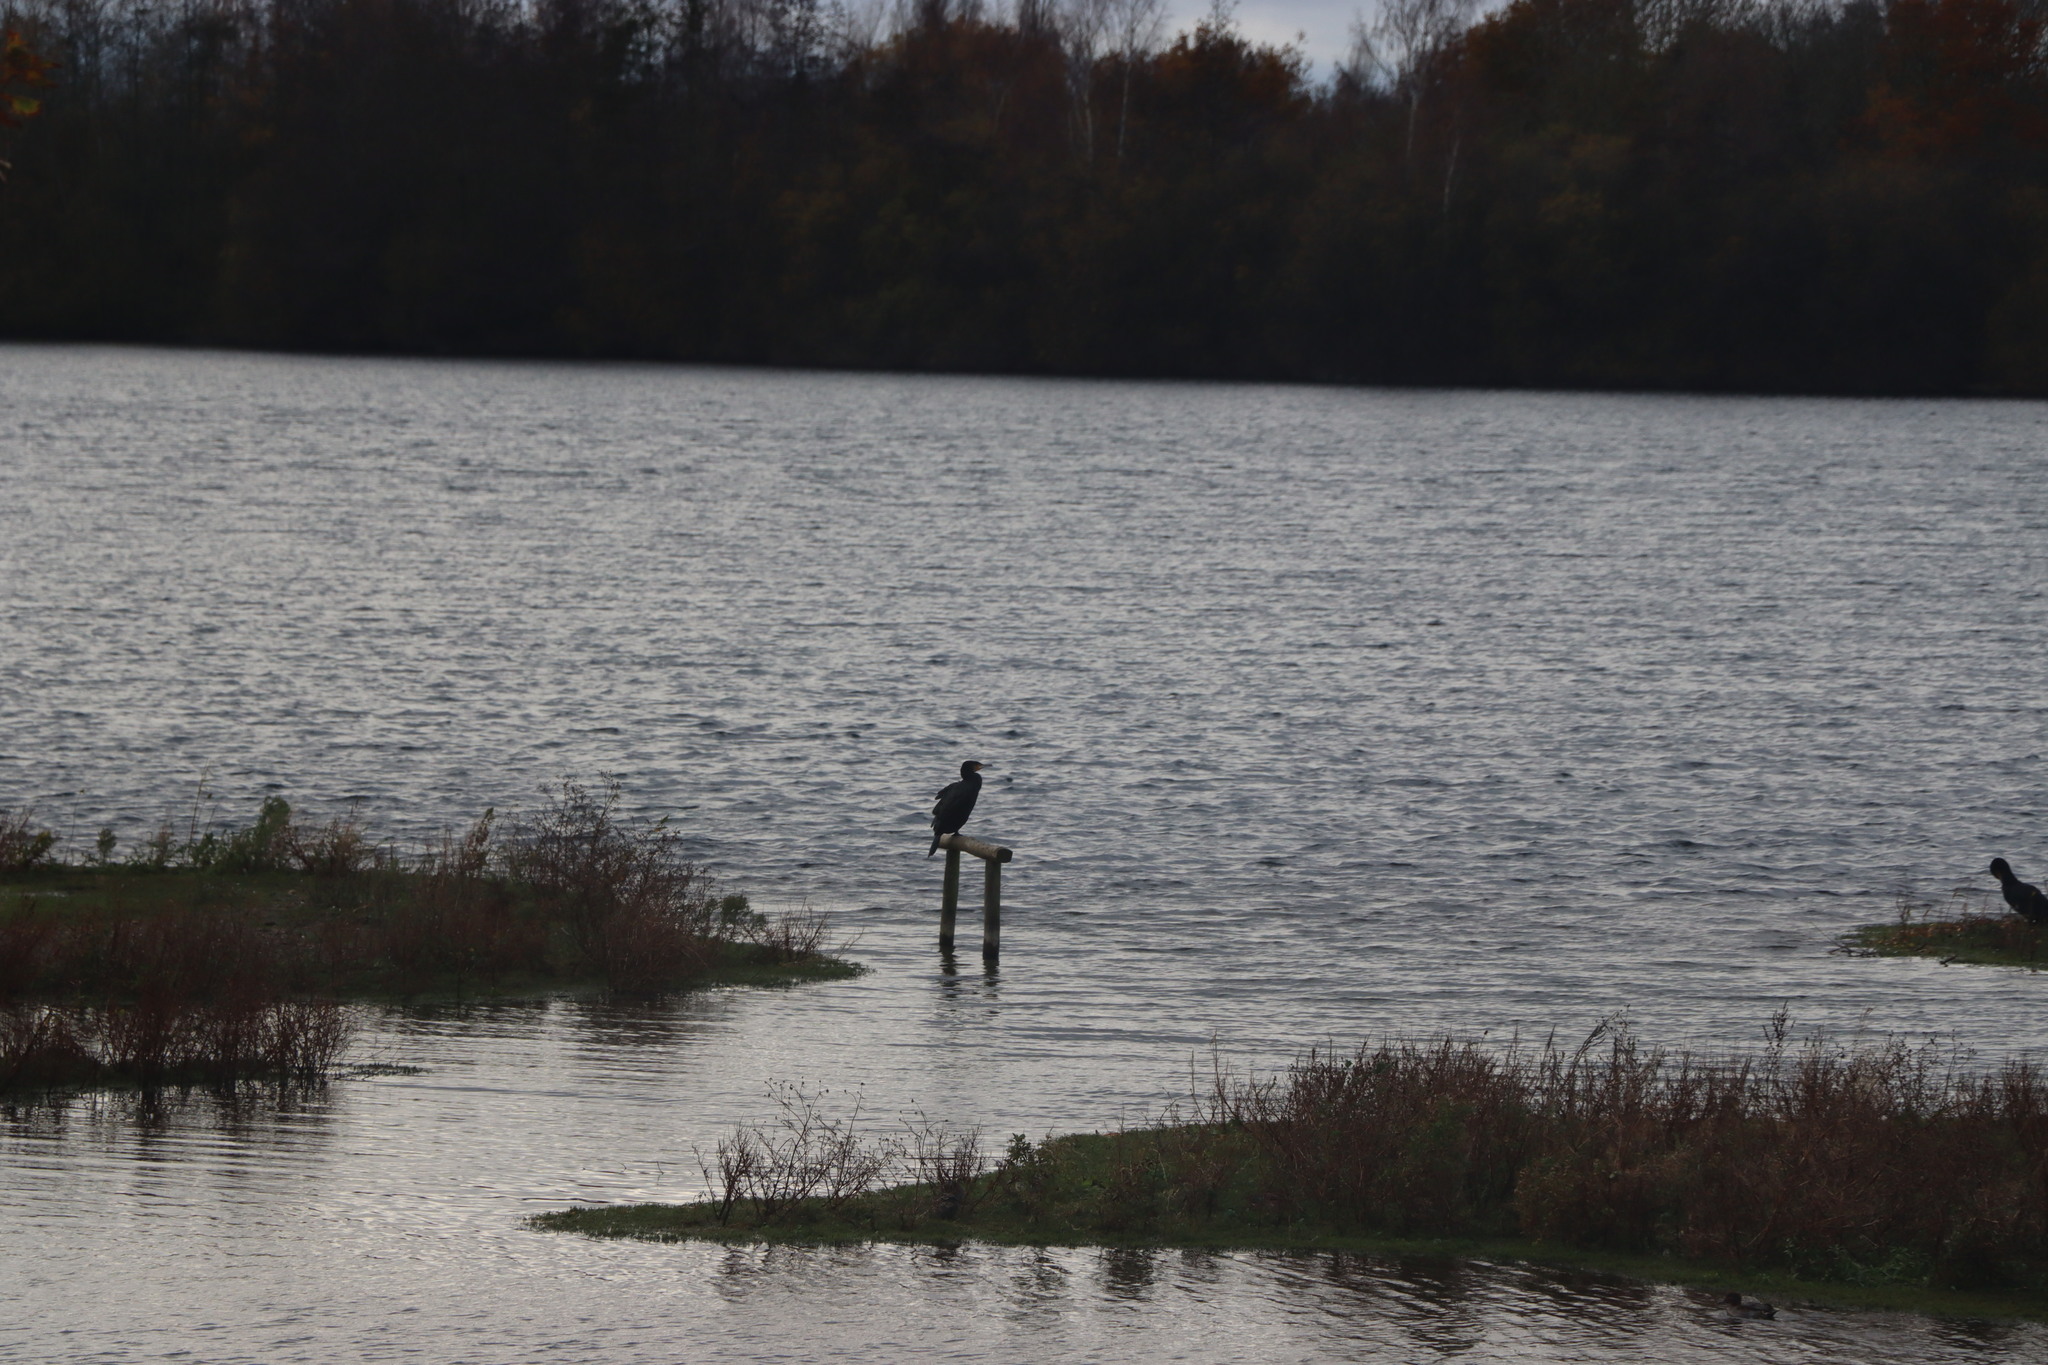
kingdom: Animalia
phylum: Chordata
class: Aves
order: Suliformes
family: Phalacrocoracidae
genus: Phalacrocorax
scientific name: Phalacrocorax carbo
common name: Great cormorant
